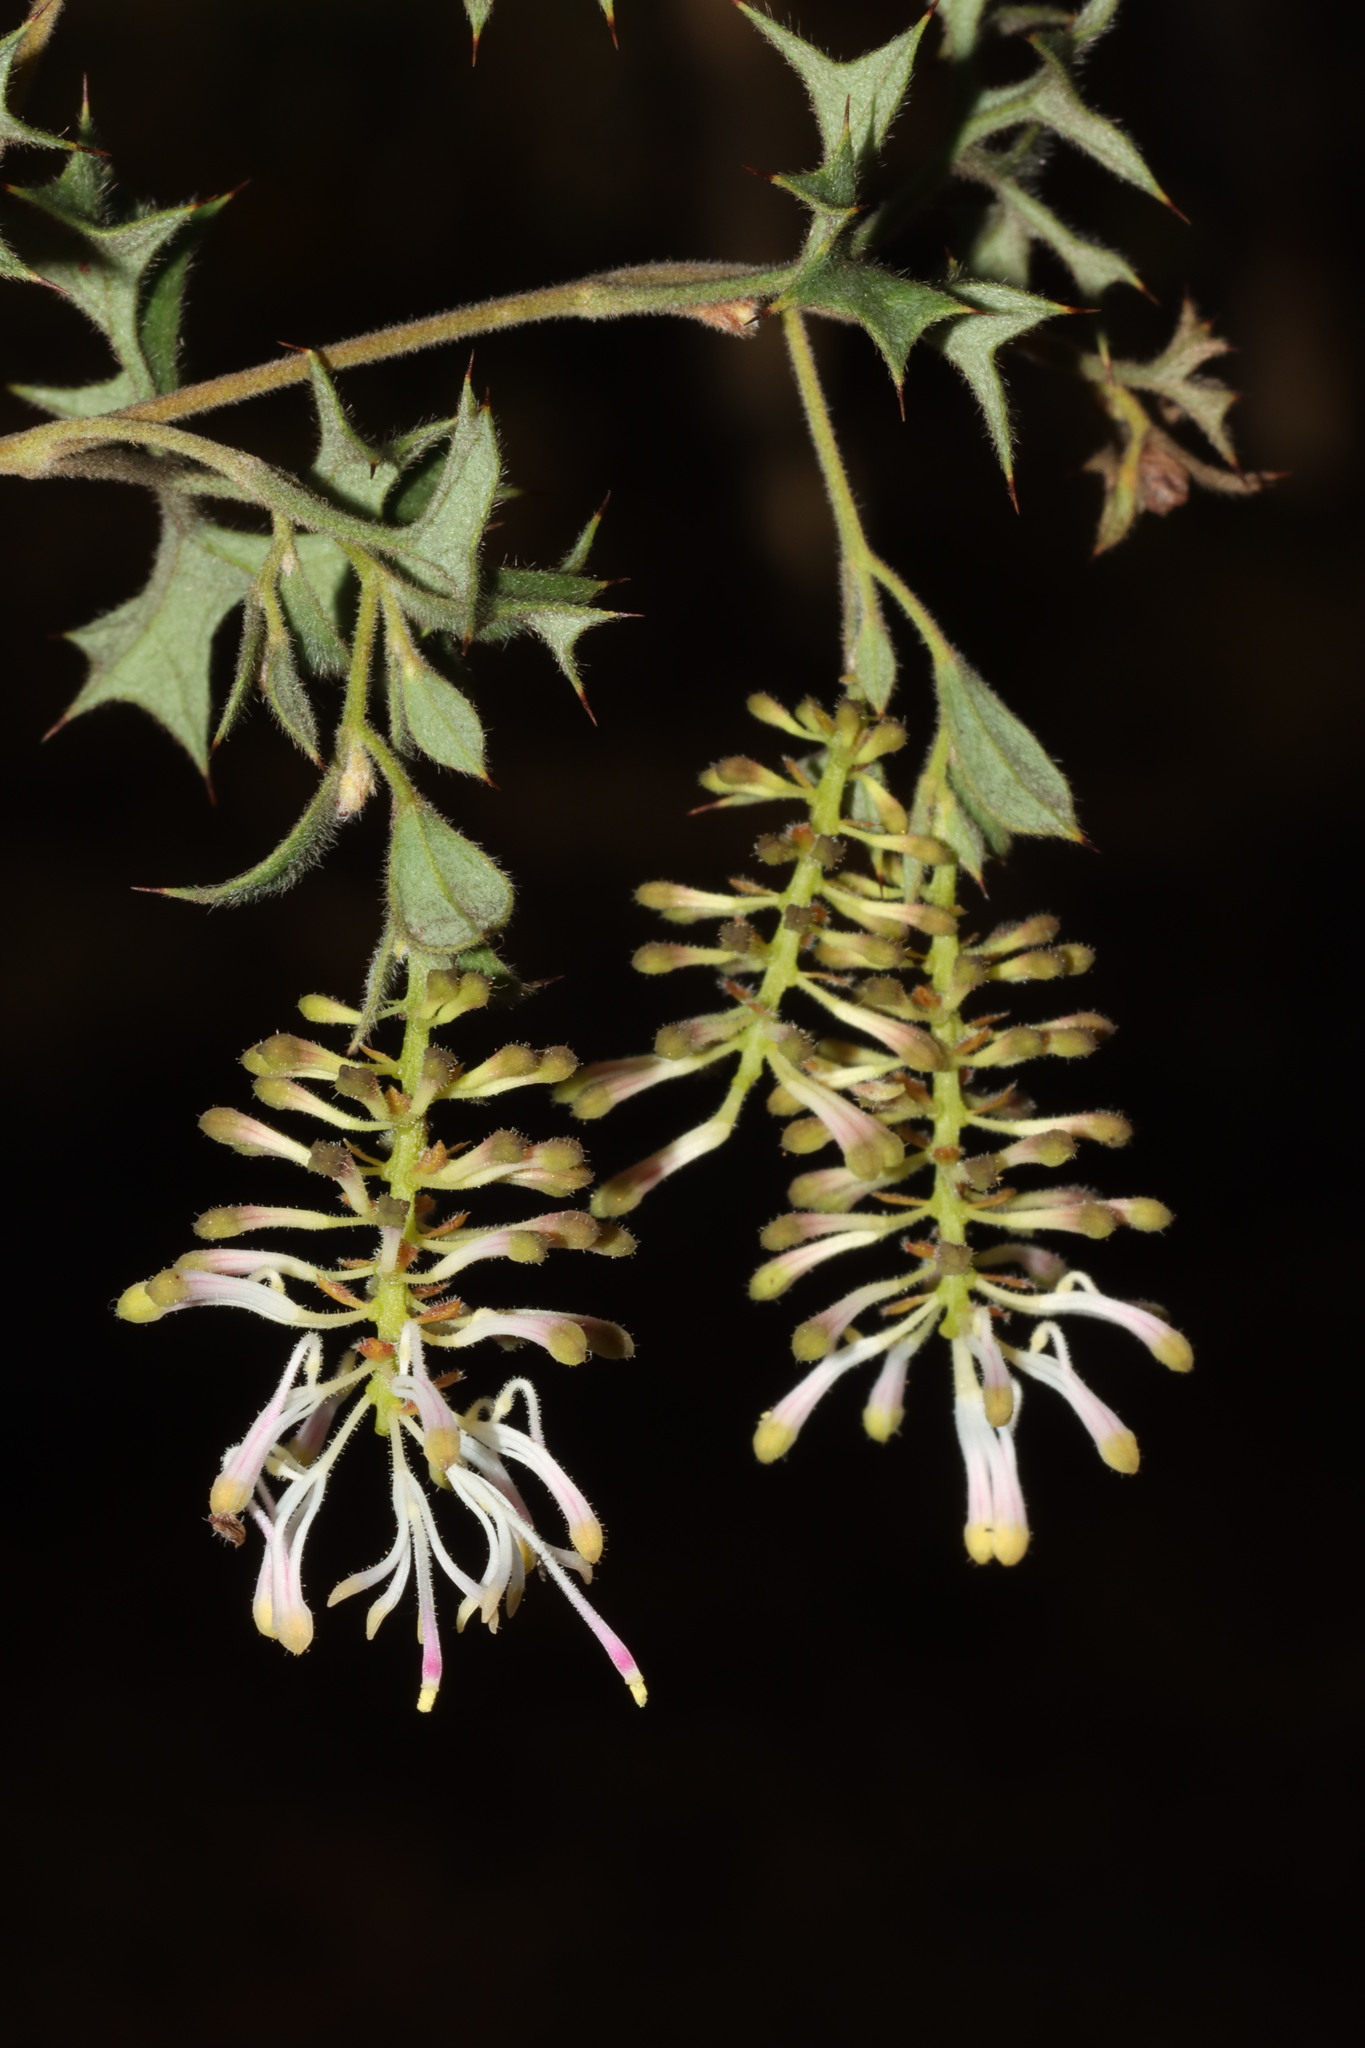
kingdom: Plantae
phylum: Tracheophyta
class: Magnoliopsida
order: Proteales
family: Proteaceae
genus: Grevillea
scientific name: Grevillea tenuiflora
